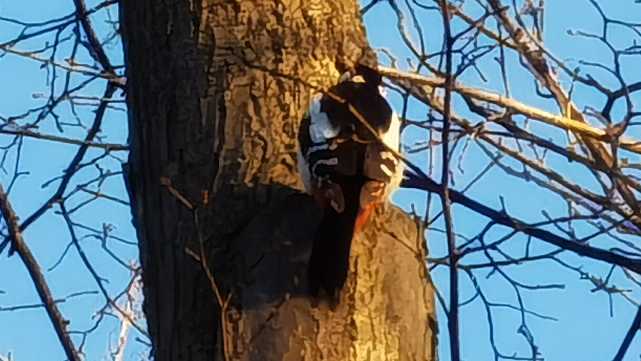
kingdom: Animalia
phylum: Chordata
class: Aves
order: Piciformes
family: Picidae
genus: Dendrocopos
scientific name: Dendrocopos major
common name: Great spotted woodpecker
